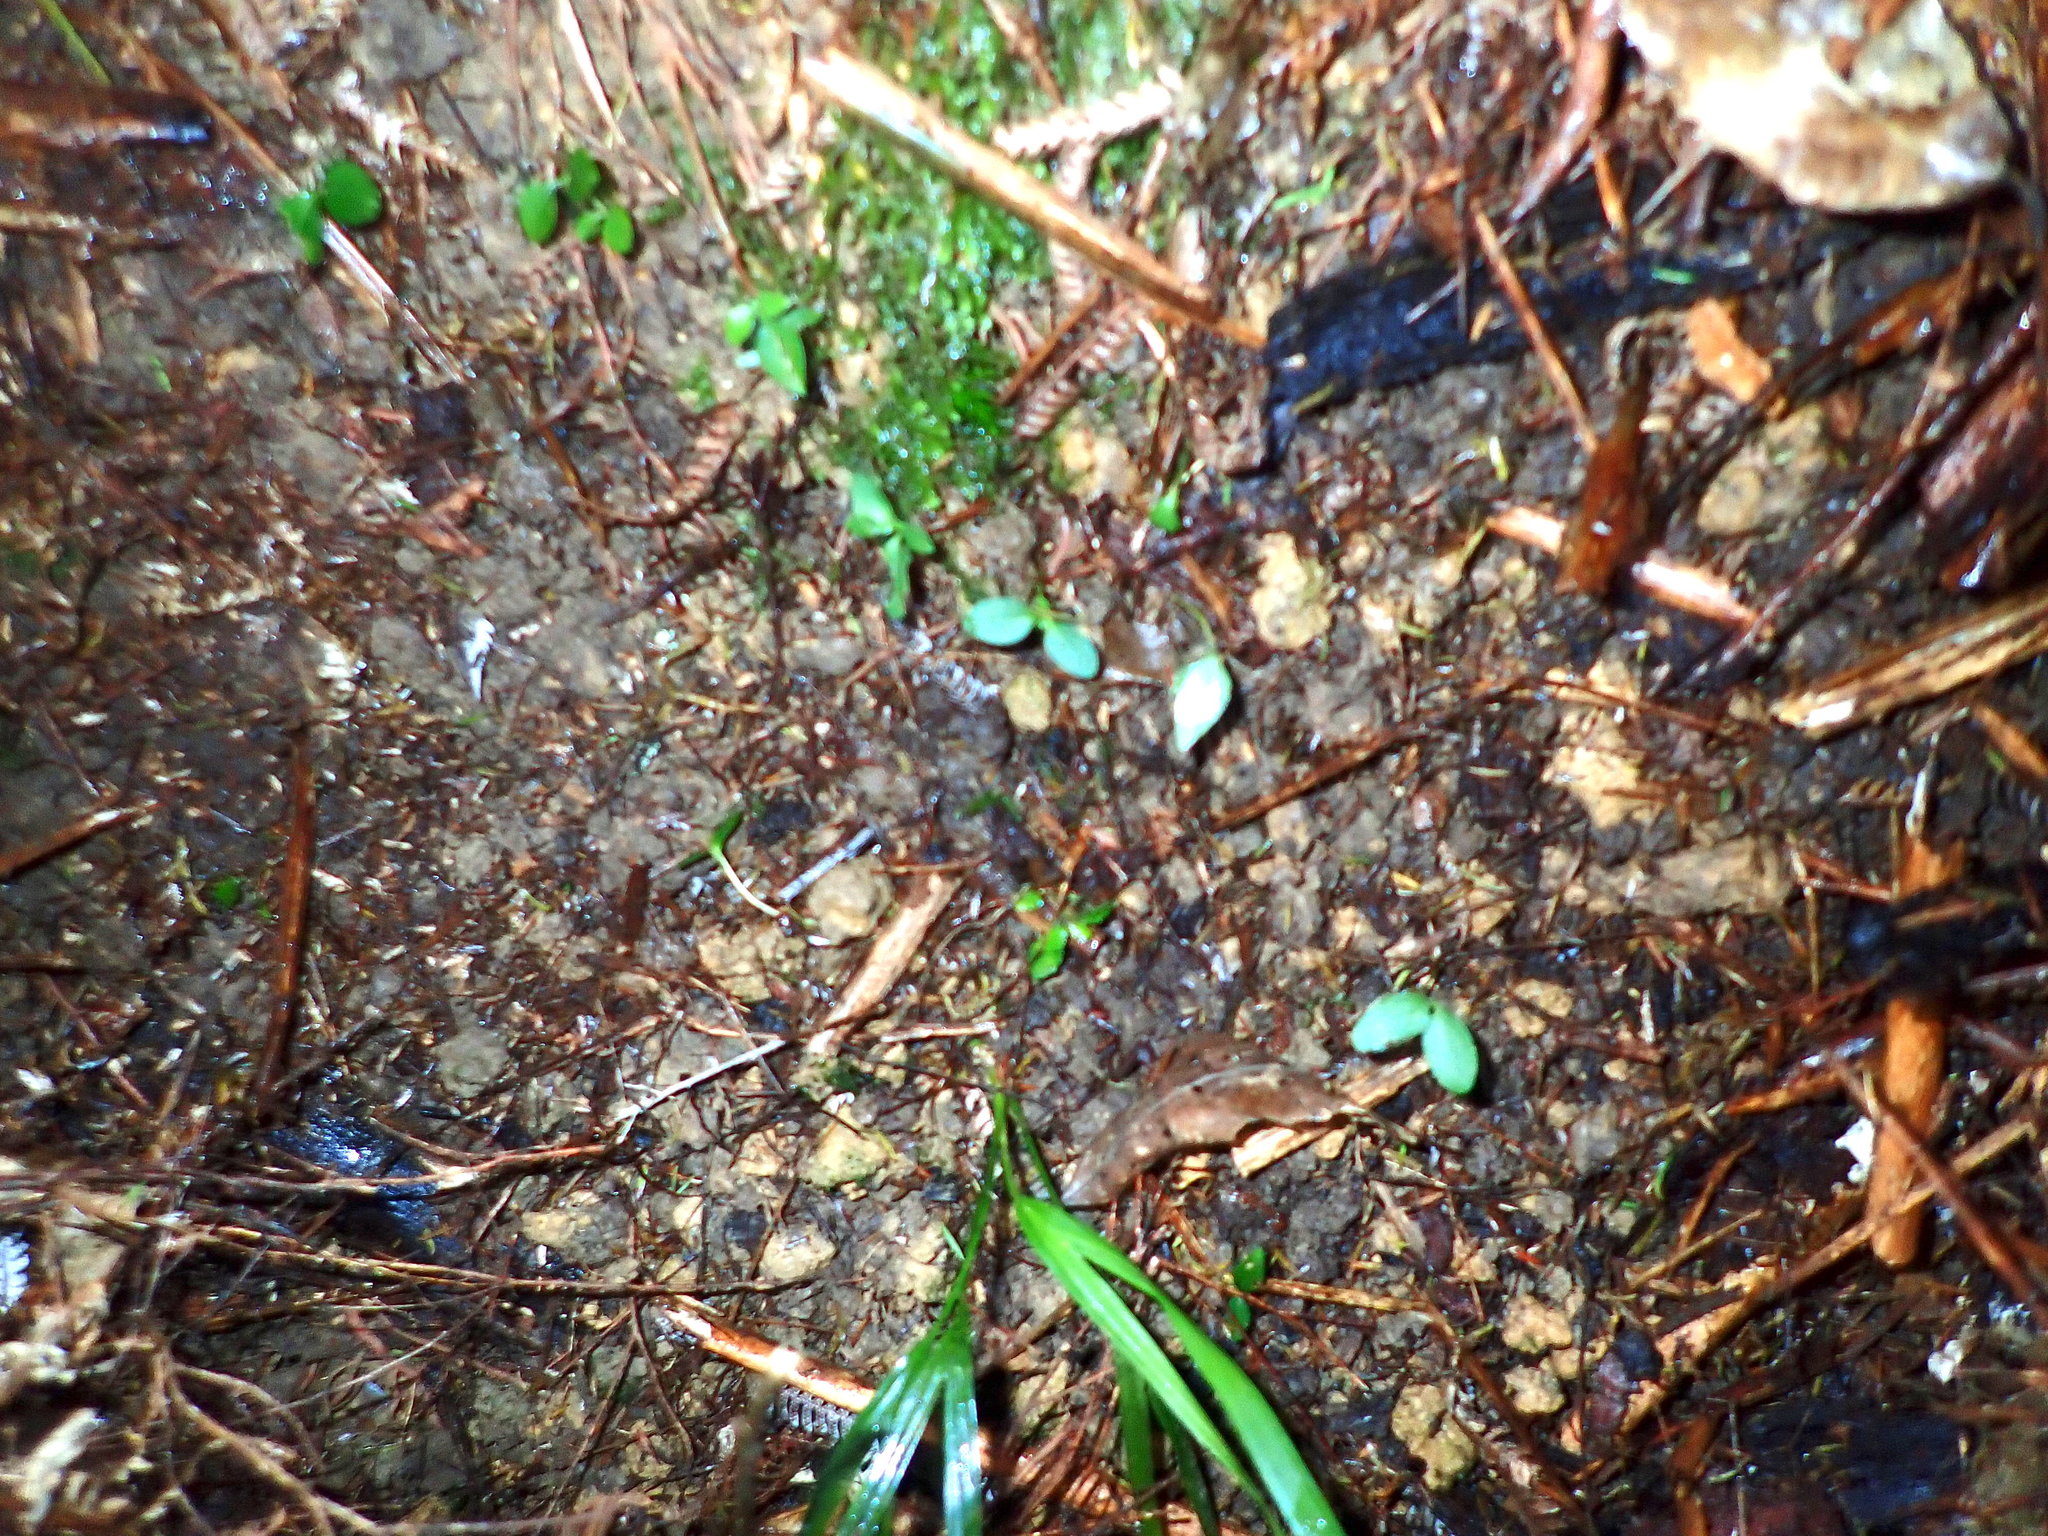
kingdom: Plantae
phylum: Tracheophyta
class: Liliopsida
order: Arecales
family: Arecaceae
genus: Rhopalostylis
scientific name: Rhopalostylis sapida
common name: Feather-duster palm
